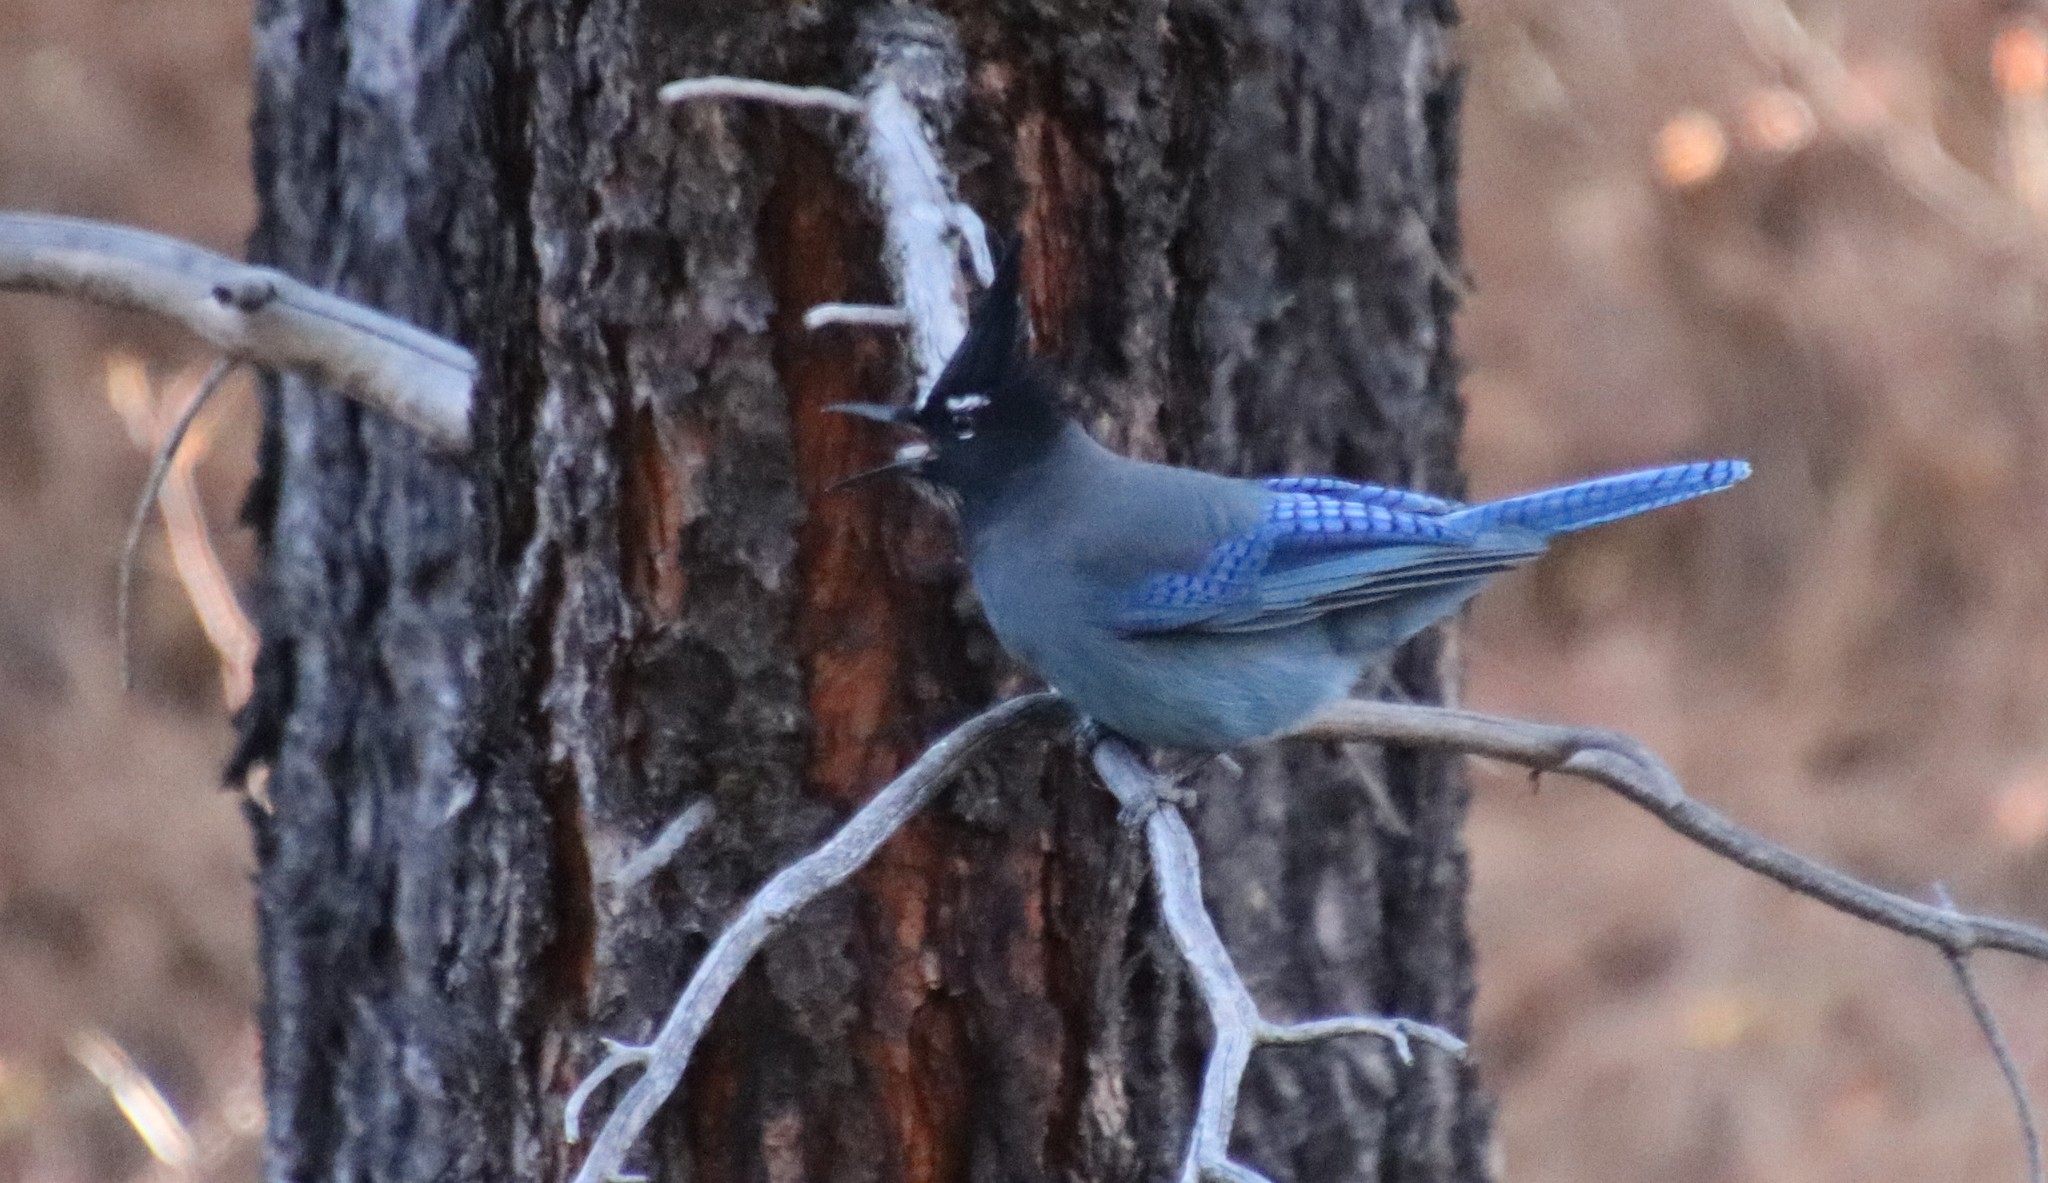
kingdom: Animalia
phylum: Chordata
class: Aves
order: Passeriformes
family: Corvidae
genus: Cyanocitta
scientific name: Cyanocitta stelleri
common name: Steller's jay
